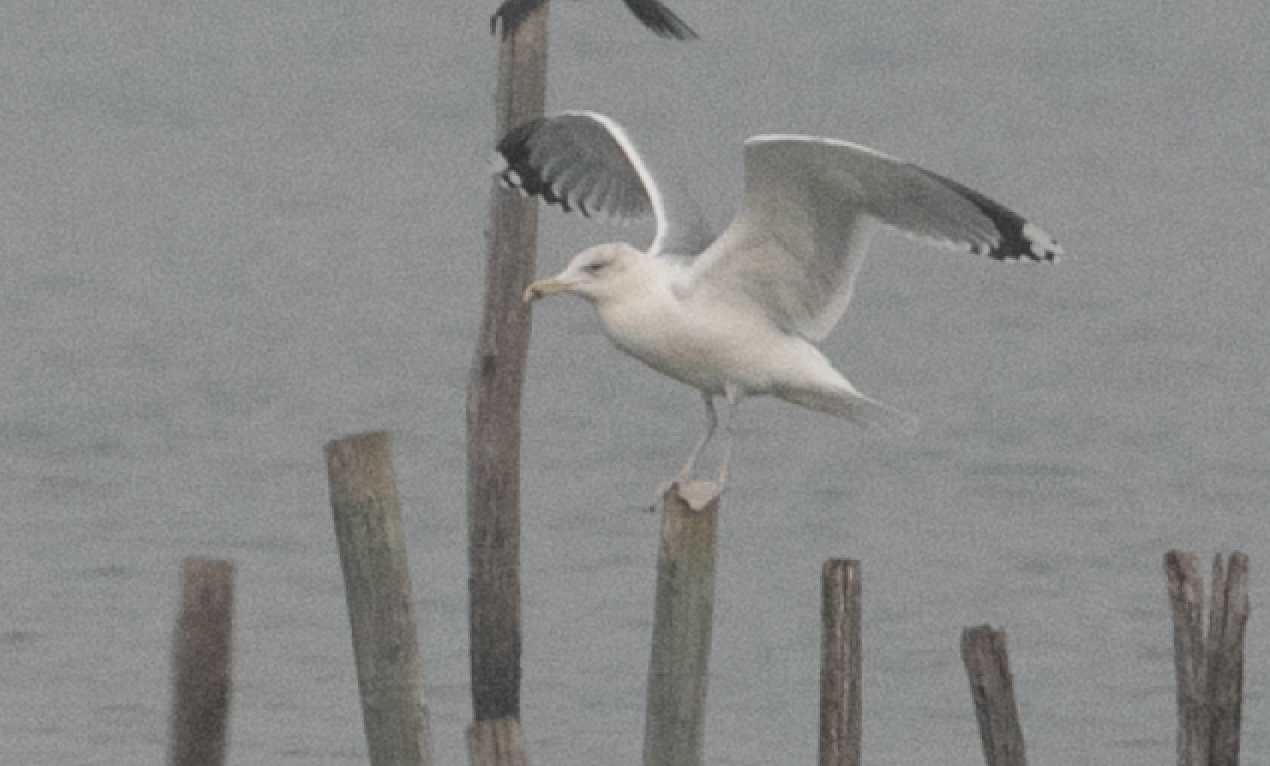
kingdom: Animalia
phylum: Chordata
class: Aves
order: Charadriiformes
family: Laridae
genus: Larus
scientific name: Larus cachinnans
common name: Caspian gull
